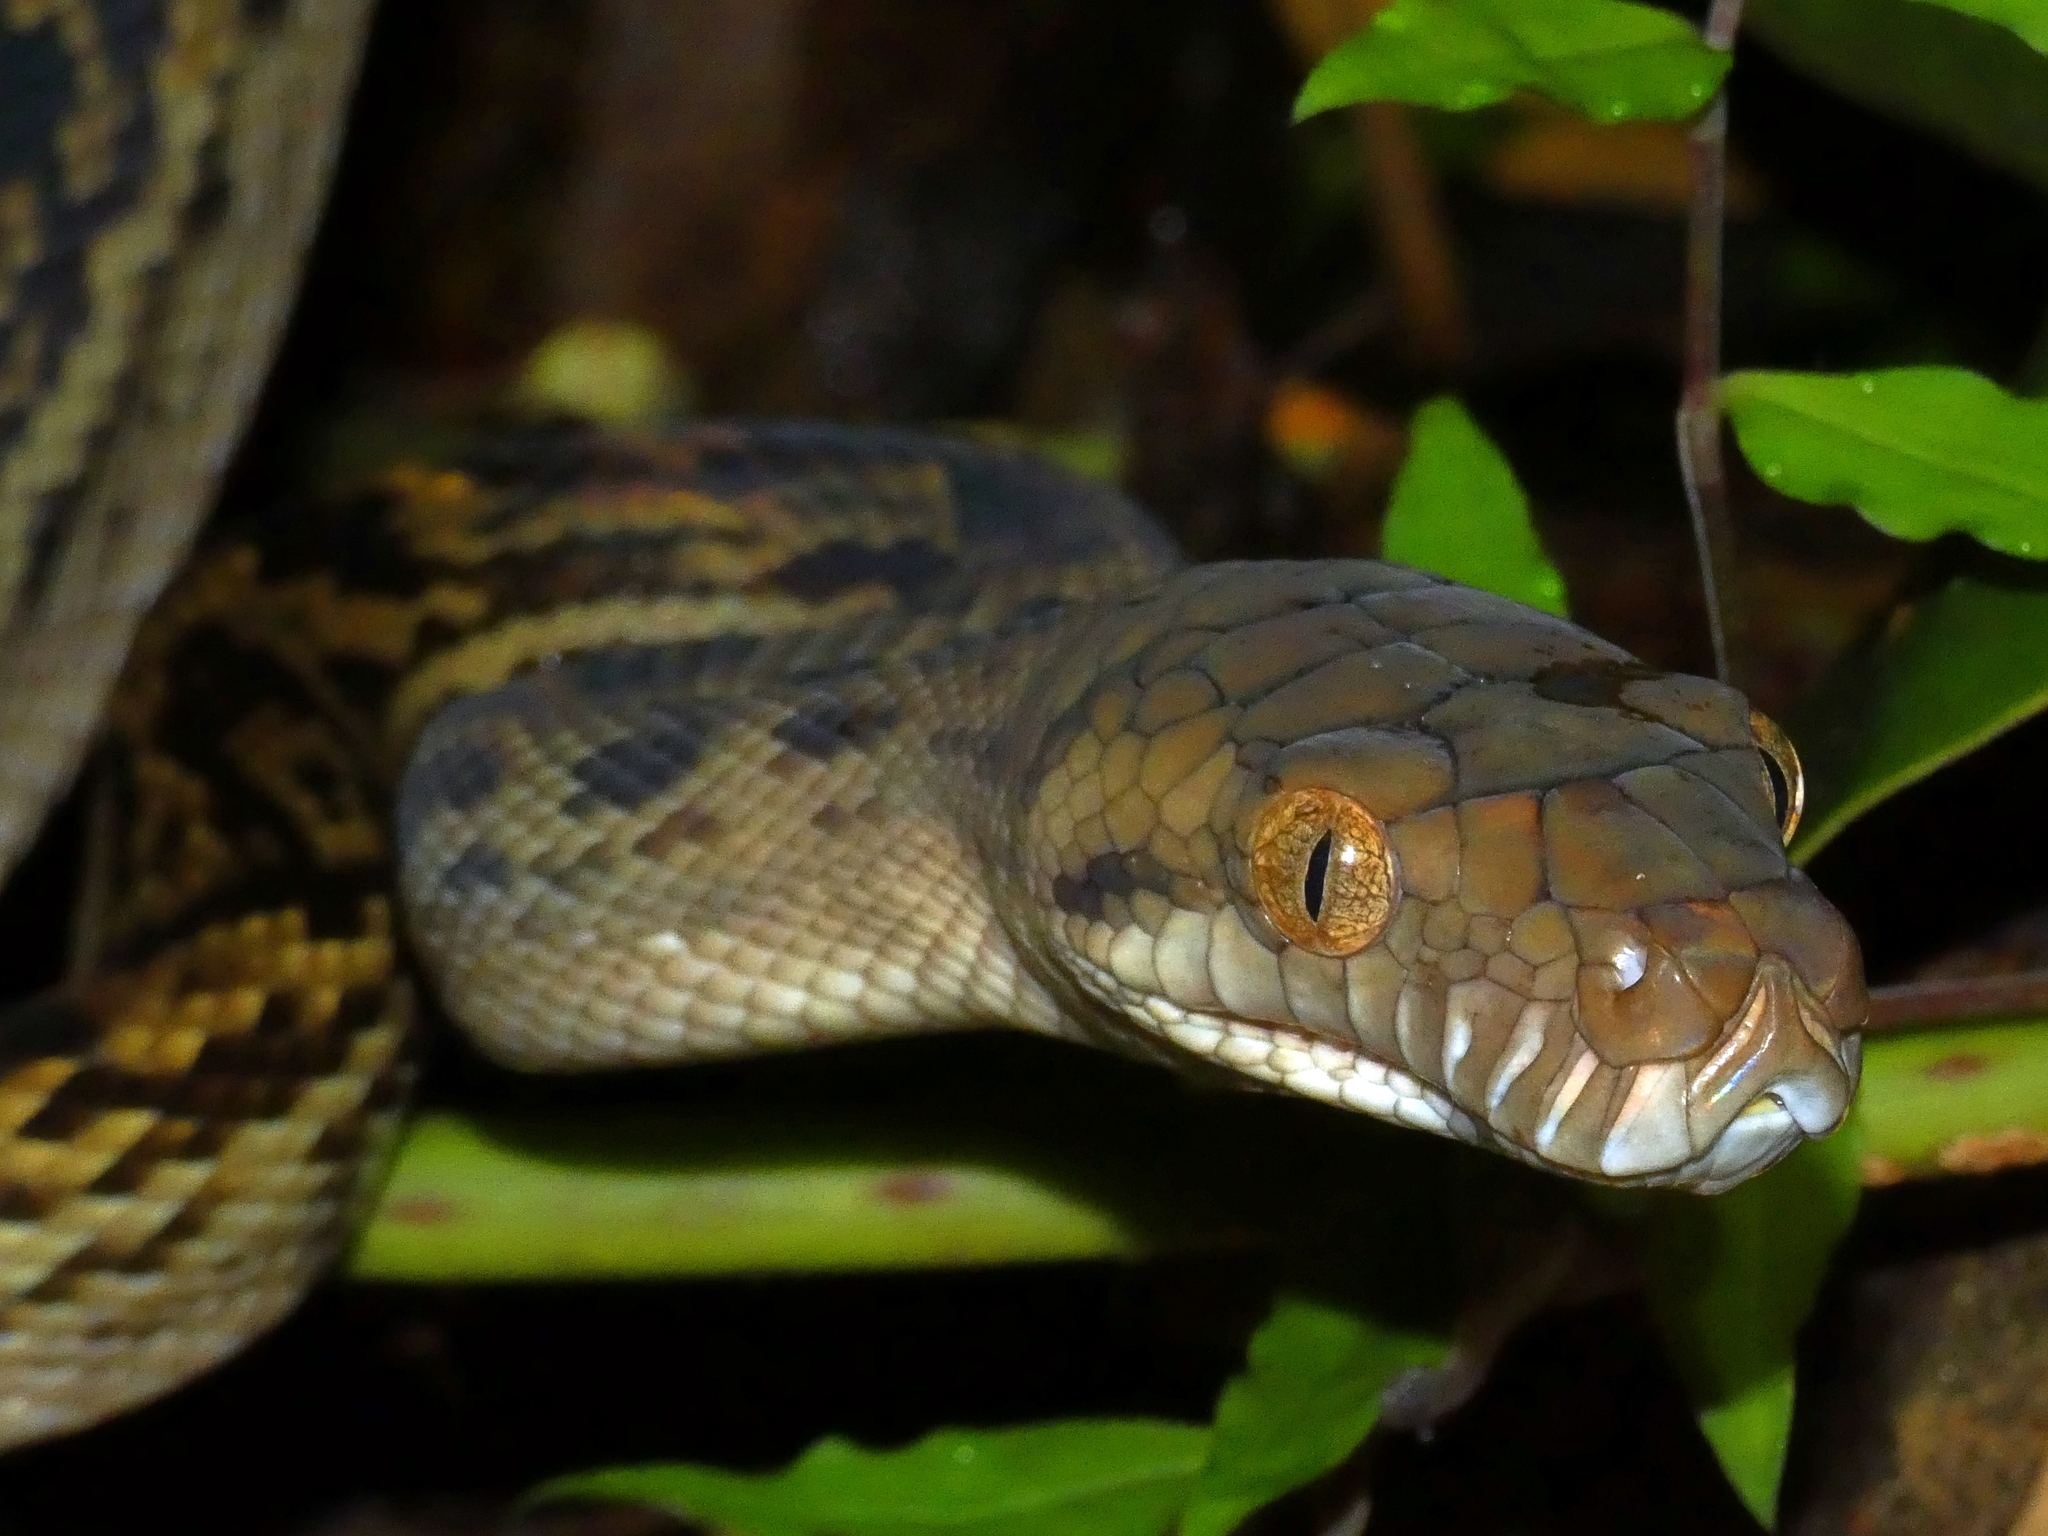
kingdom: Animalia
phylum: Chordata
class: Squamata
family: Pythonidae
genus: Simalia
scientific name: Simalia kinghorni
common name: Scrub python
